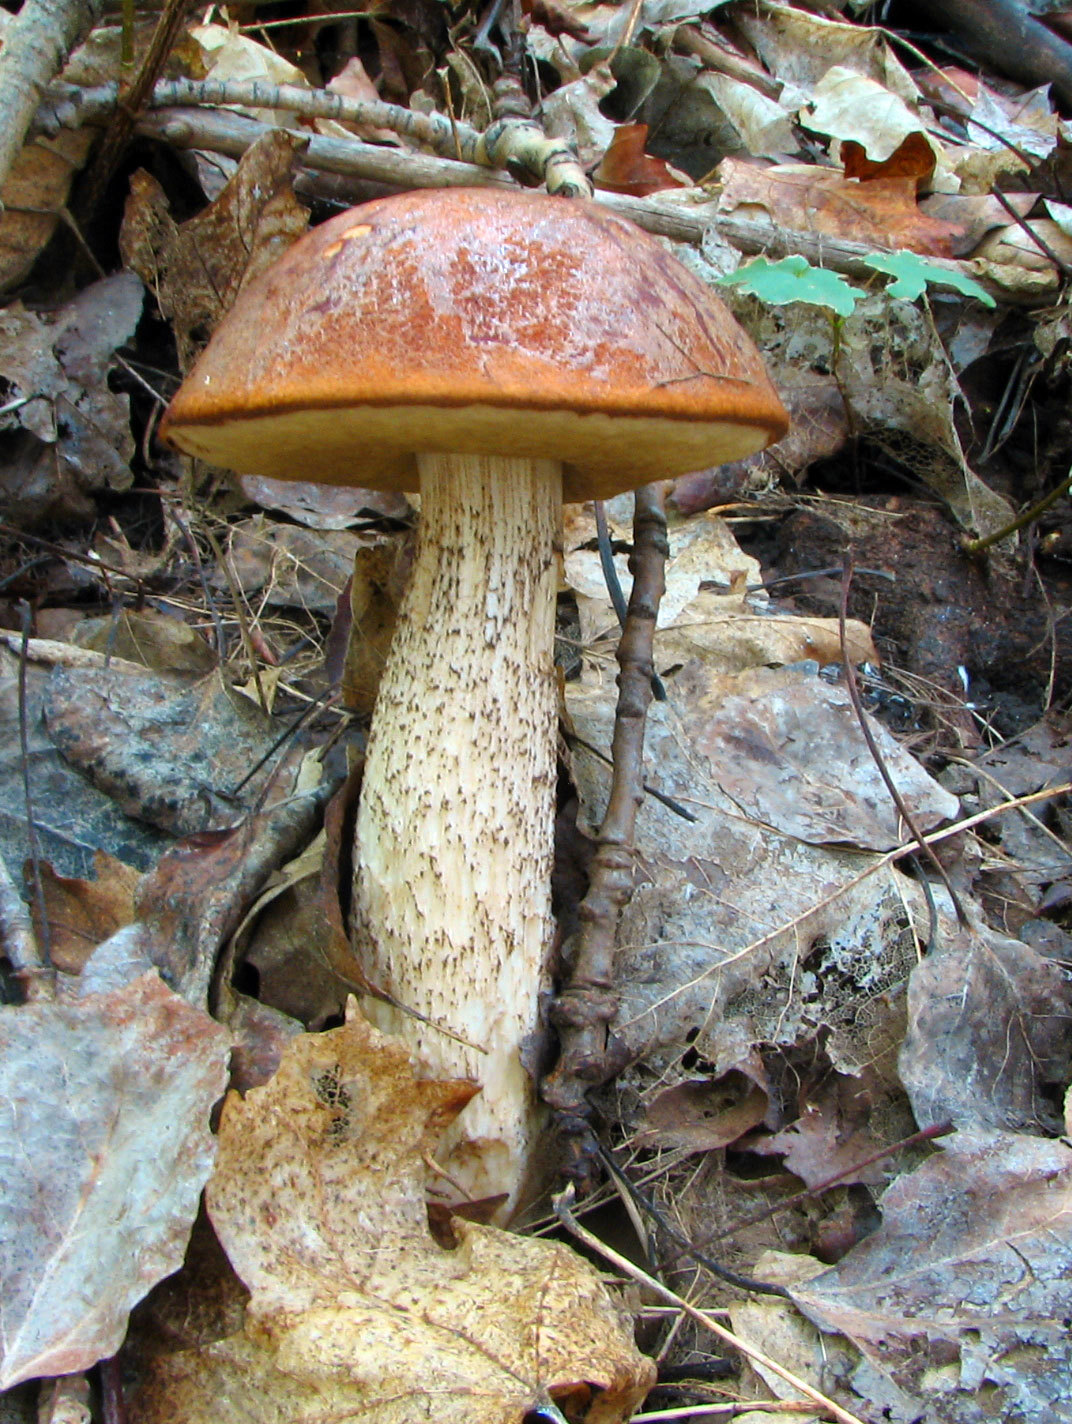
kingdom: Fungi
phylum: Basidiomycota
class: Agaricomycetes
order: Boletales
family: Boletaceae
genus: Leccinum
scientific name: Leccinum insigne
